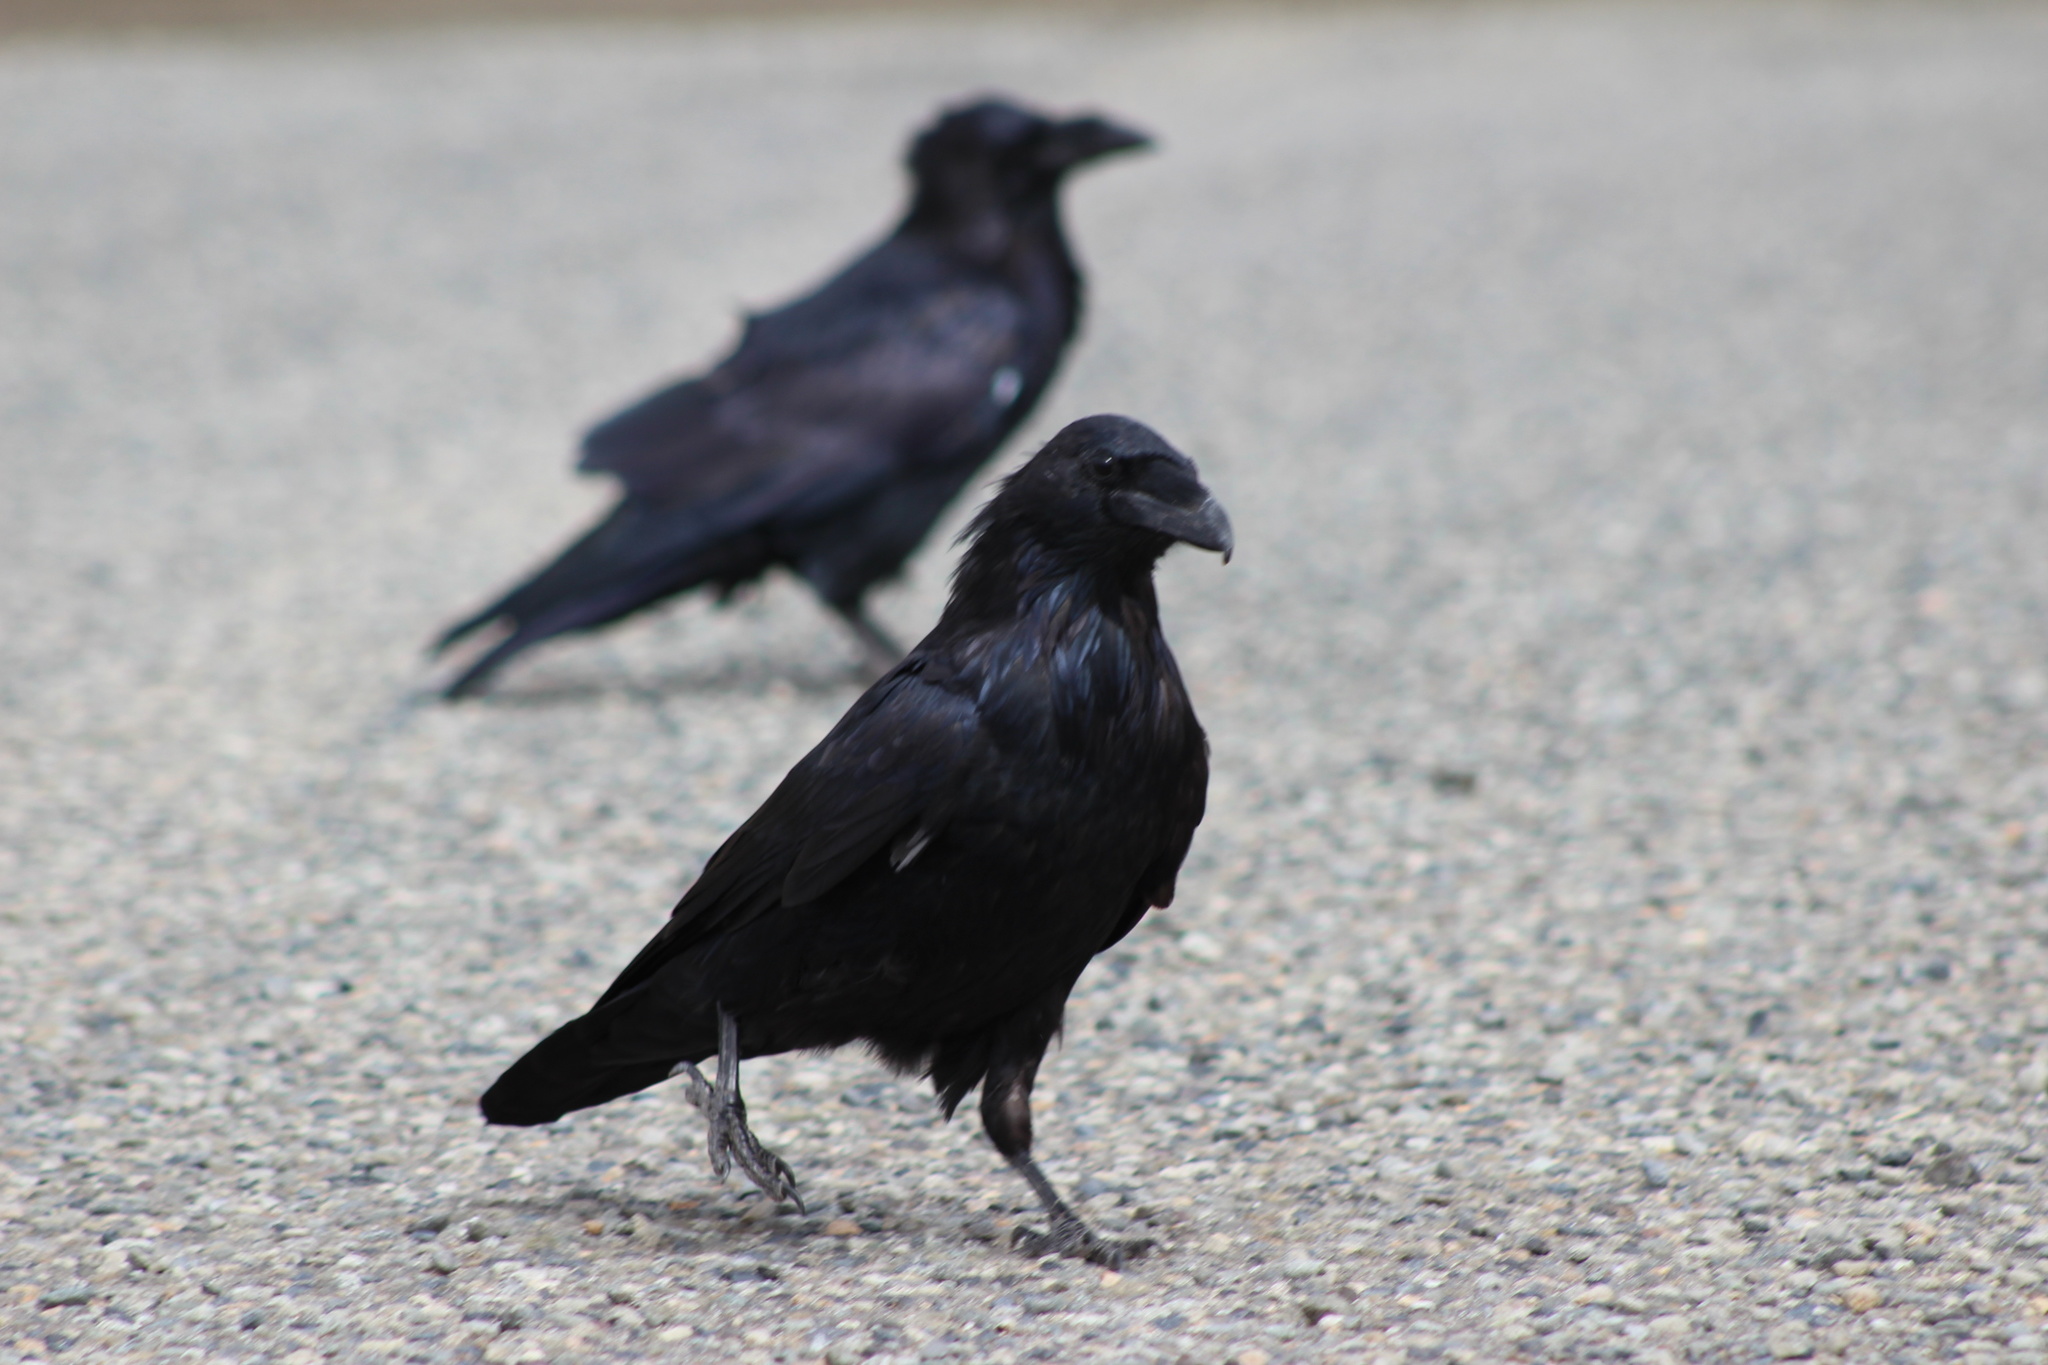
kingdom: Animalia
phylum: Chordata
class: Aves
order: Passeriformes
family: Corvidae
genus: Corvus
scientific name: Corvus corax
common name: Common raven
